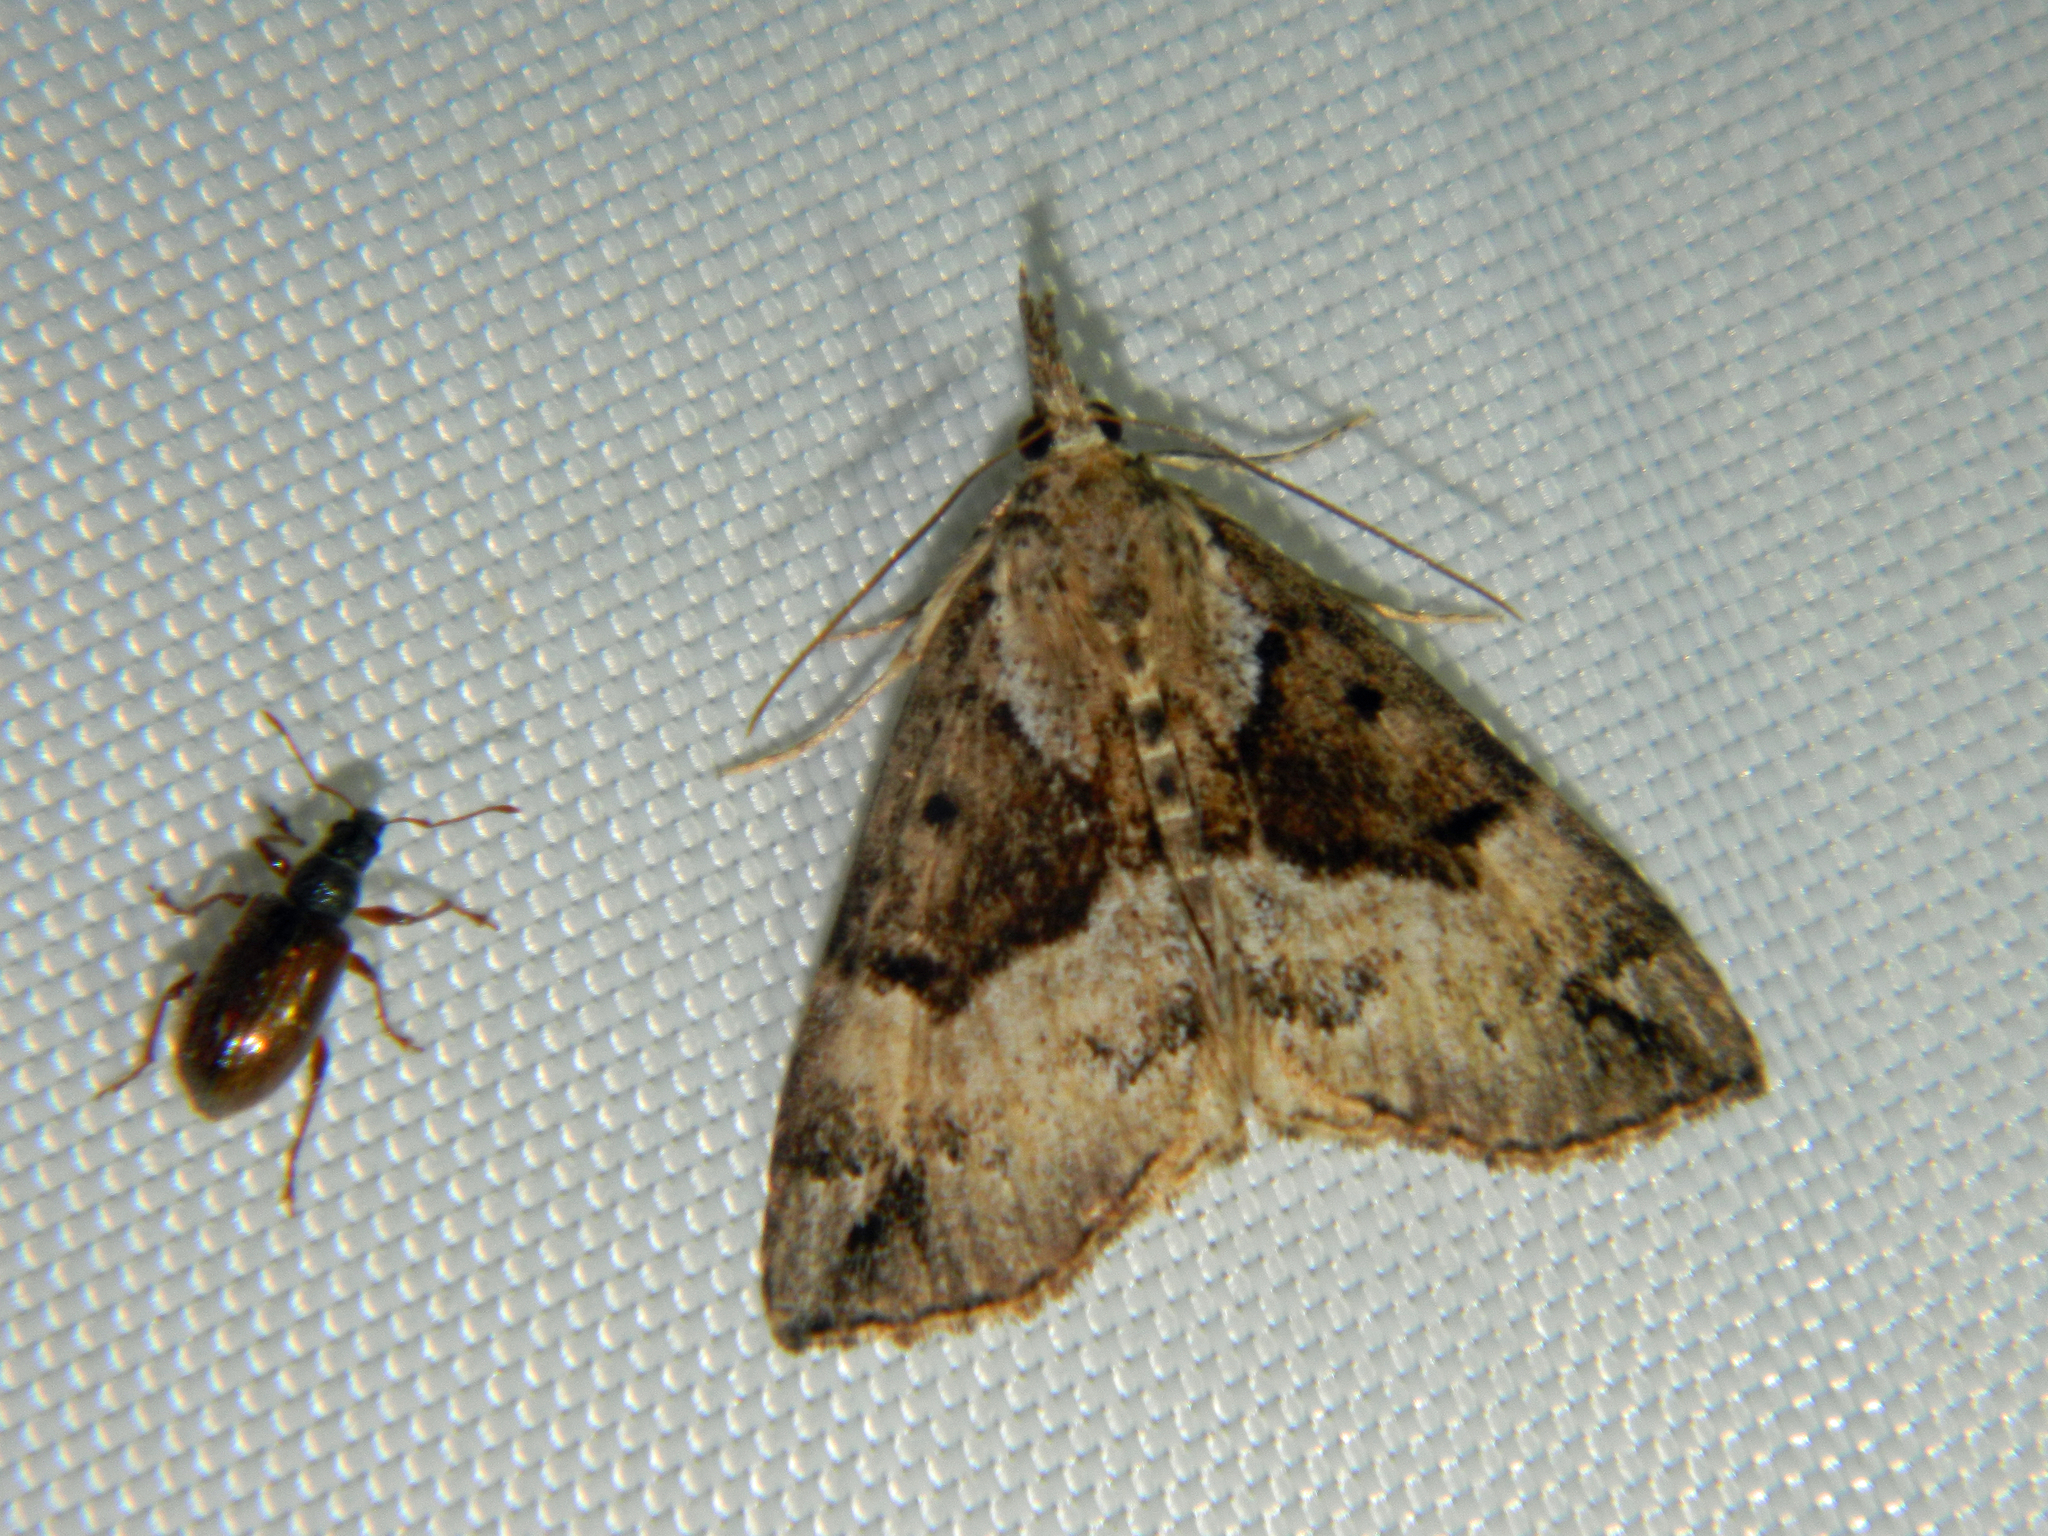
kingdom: Animalia
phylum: Arthropoda
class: Insecta
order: Lepidoptera
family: Erebidae
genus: Hypena
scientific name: Hypena palparia
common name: Mottled bomolocha moth
